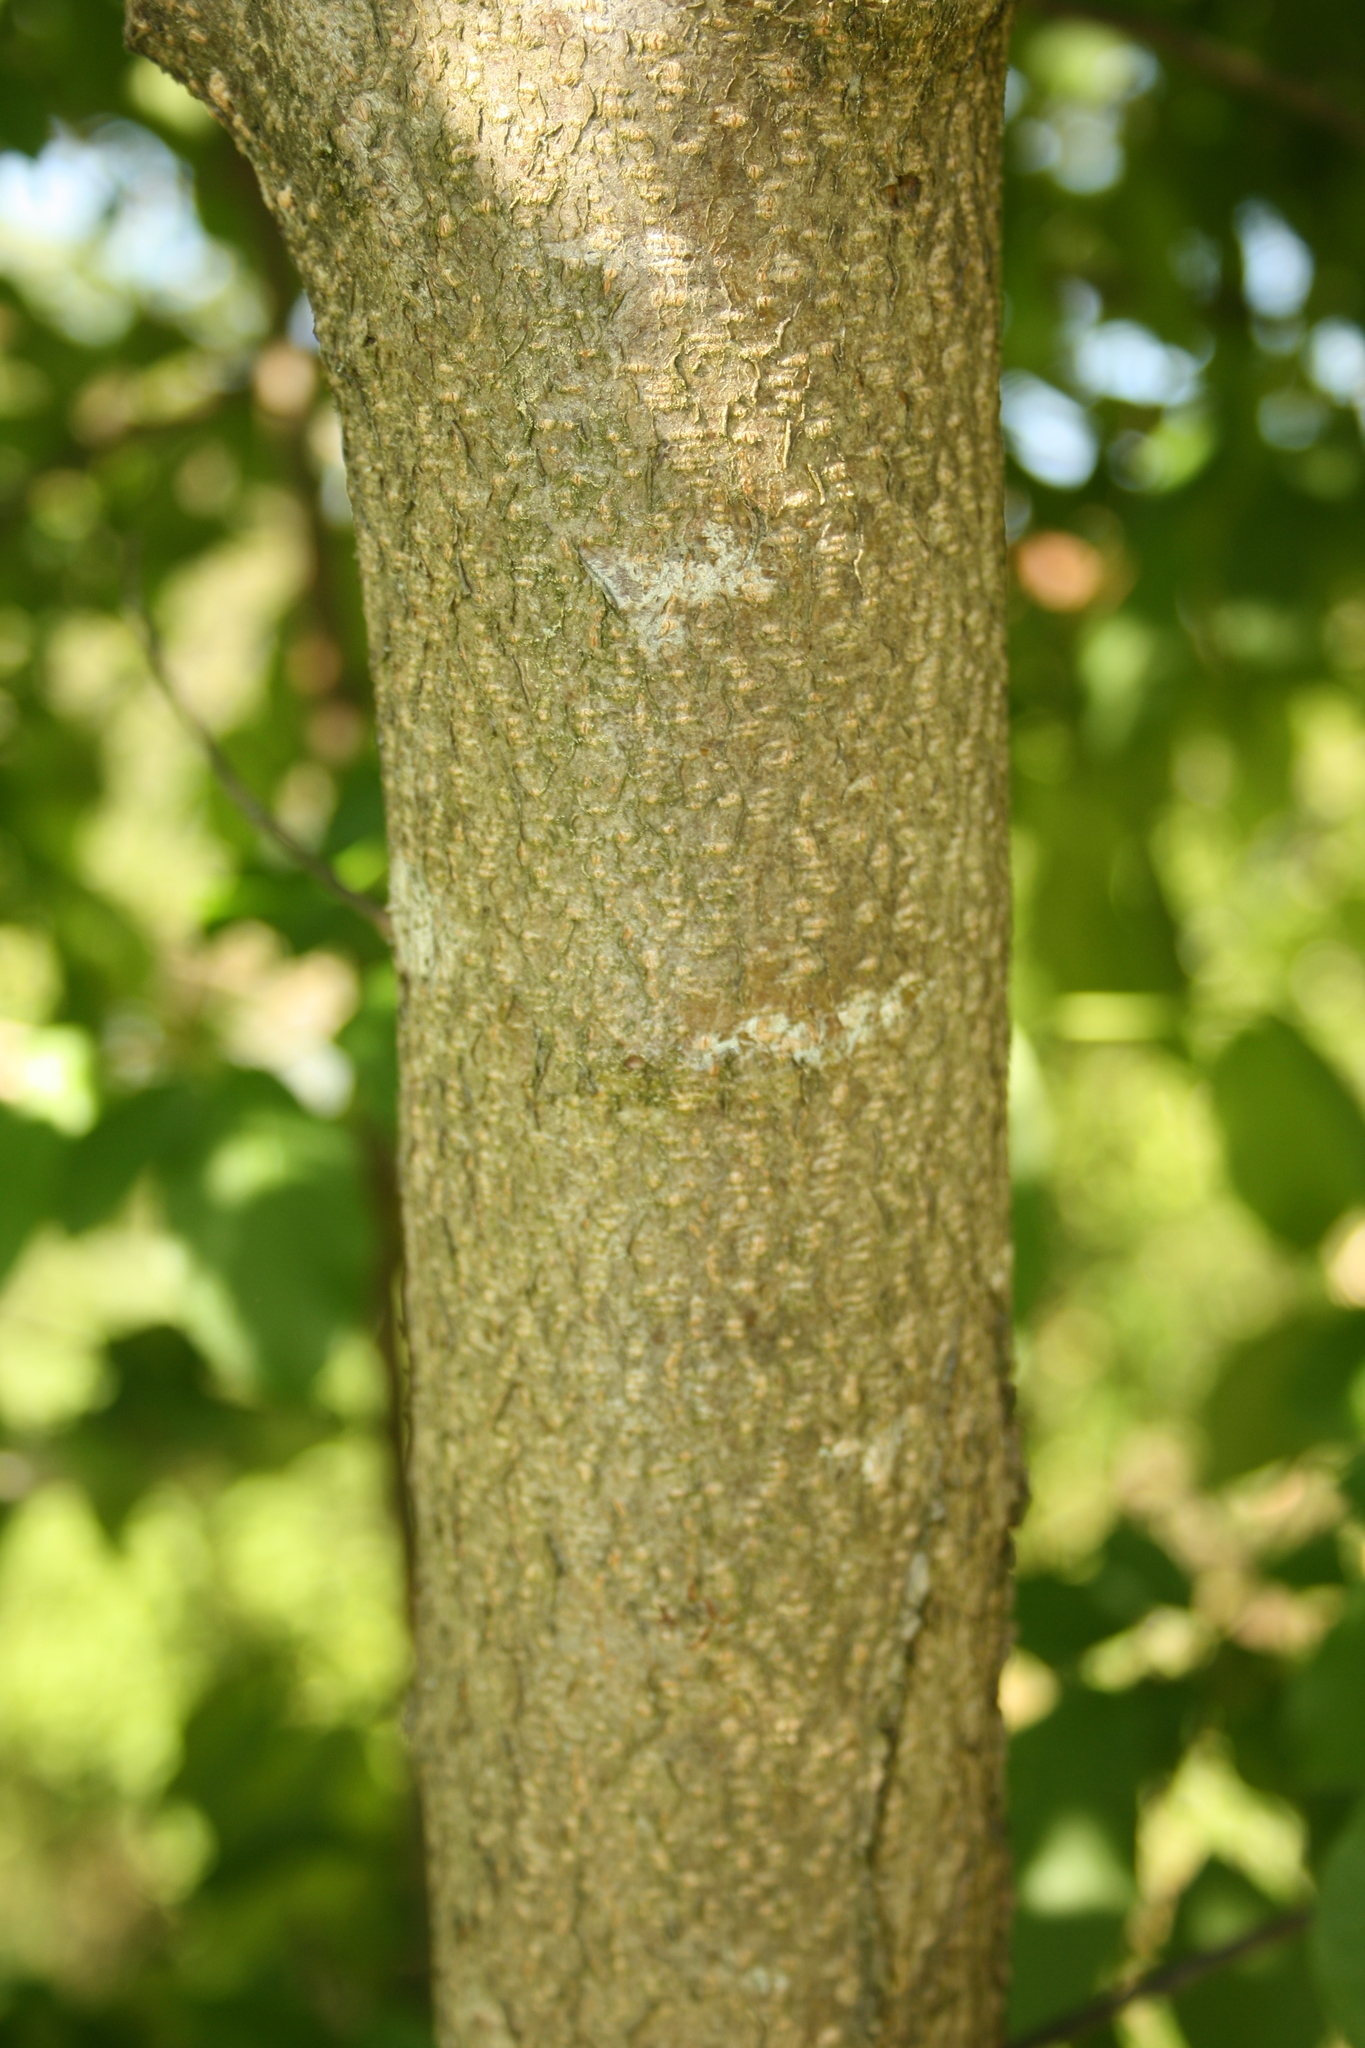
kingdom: Plantae
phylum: Tracheophyta
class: Magnoliopsida
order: Rosales
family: Rosaceae
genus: Prunus
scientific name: Prunus padus
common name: Bird cherry
